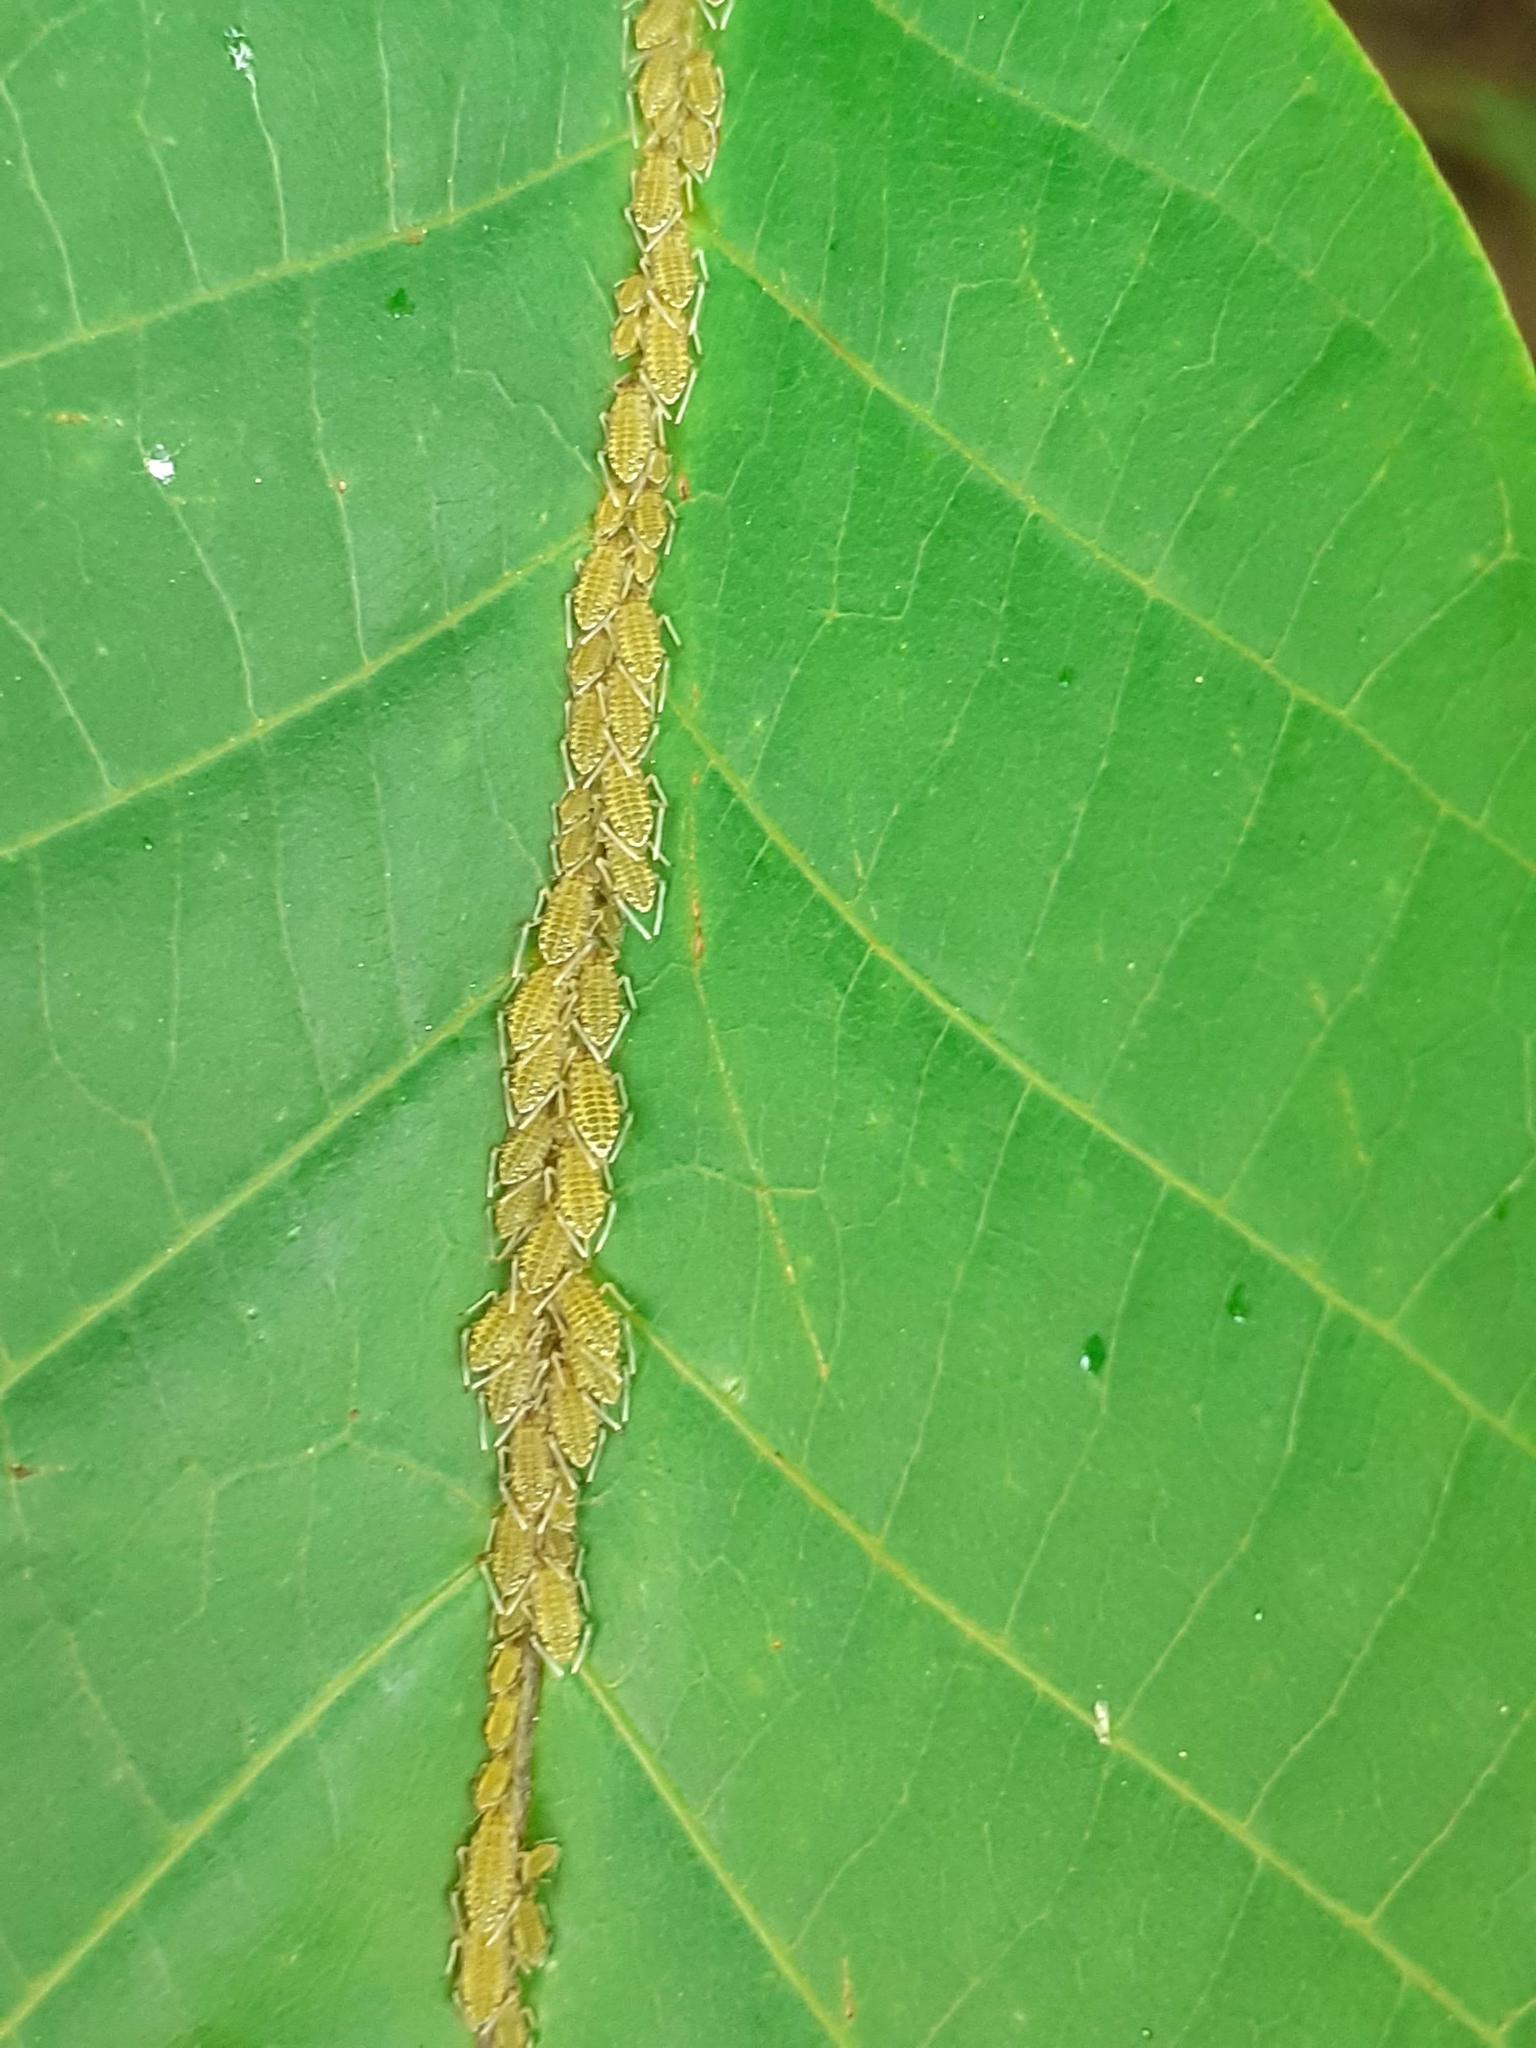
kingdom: Animalia
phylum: Arthropoda
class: Insecta
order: Hemiptera
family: Aphididae
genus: Panaphis
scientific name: Panaphis juglandis
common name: Large walnut aphid
